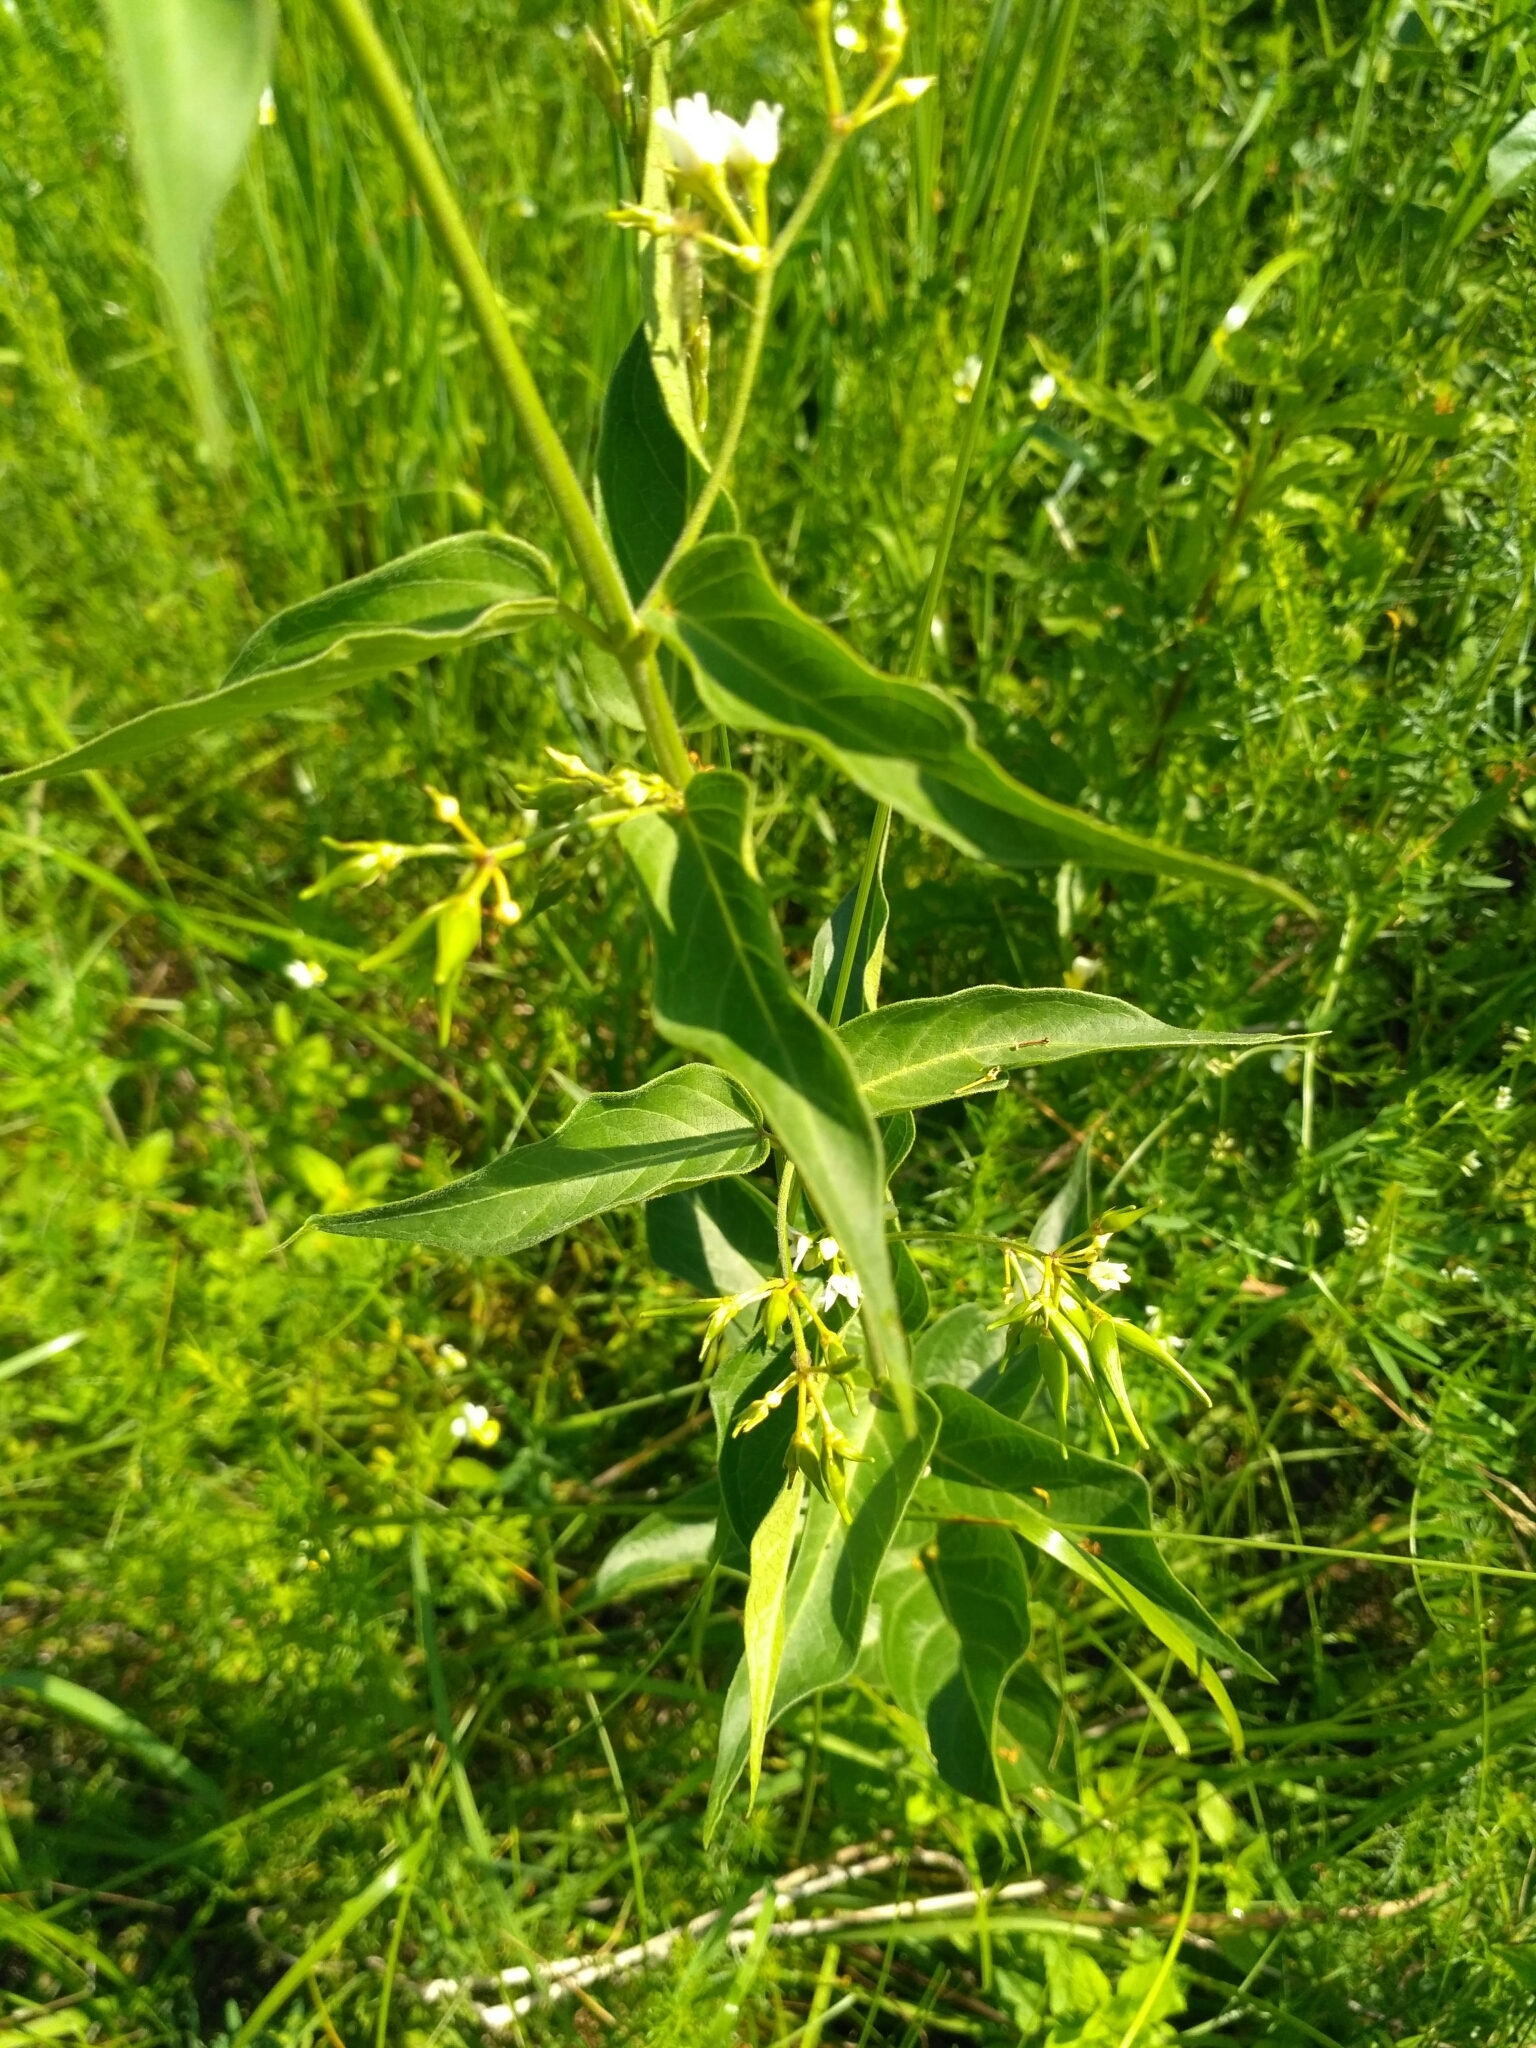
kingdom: Plantae
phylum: Tracheophyta
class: Magnoliopsida
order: Gentianales
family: Apocynaceae
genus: Vincetoxicum
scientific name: Vincetoxicum hirundinaria
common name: White swallowwort
